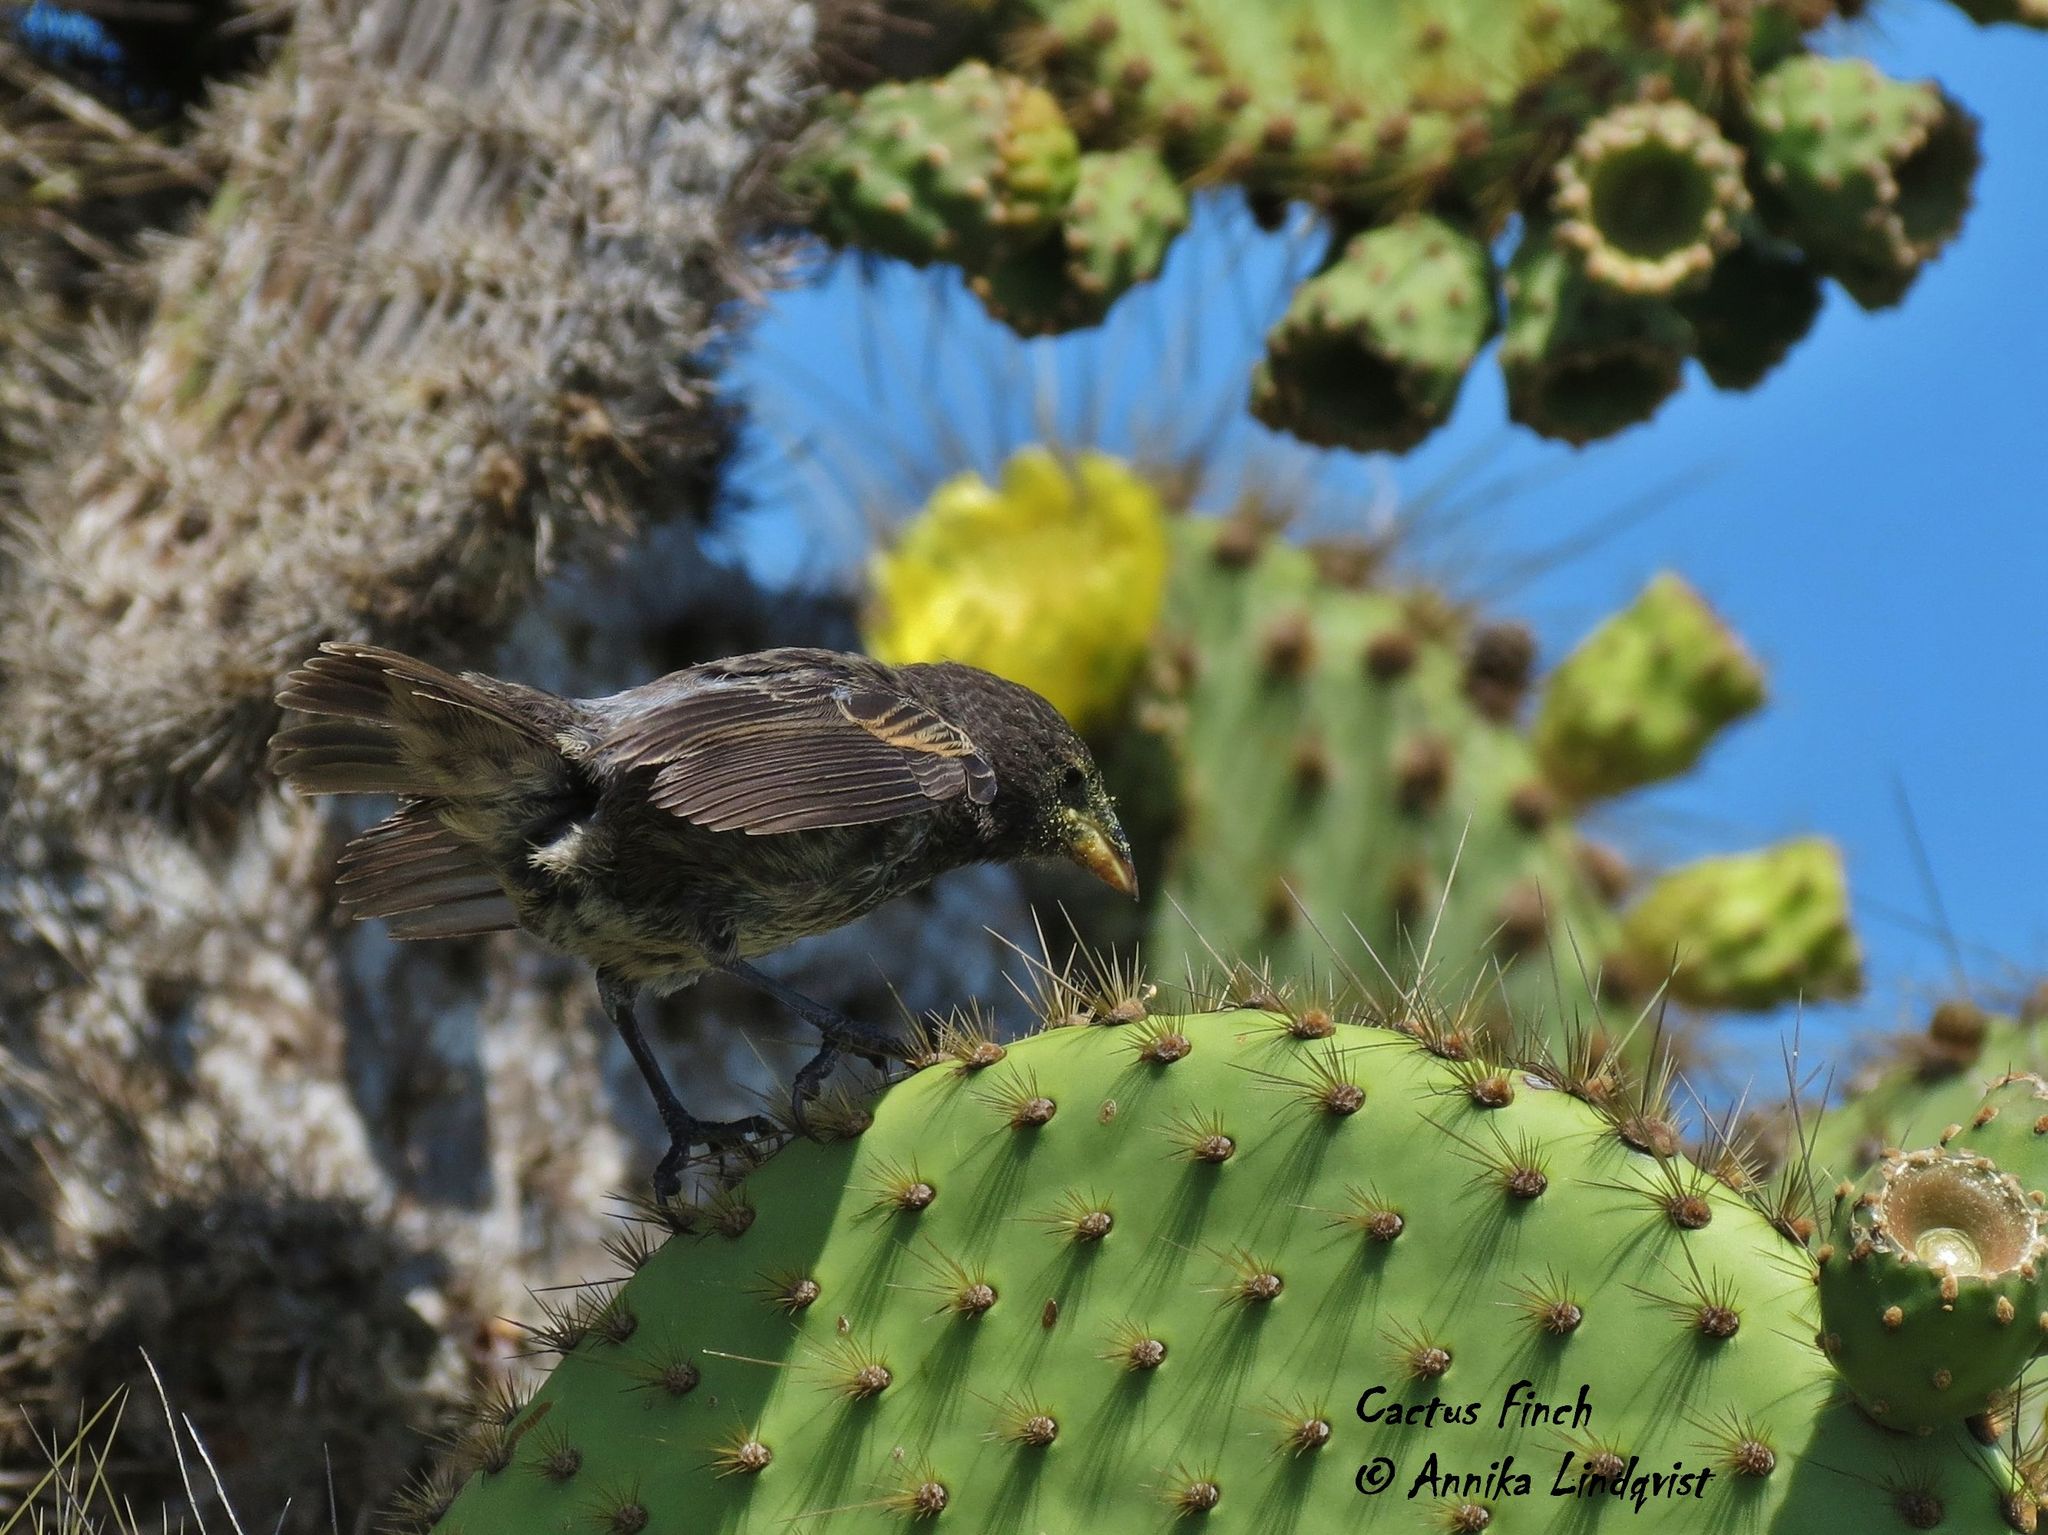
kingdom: Animalia
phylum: Chordata
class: Aves
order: Passeriformes
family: Thraupidae
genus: Geospiza
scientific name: Geospiza scandens
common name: Common cactus-finch
